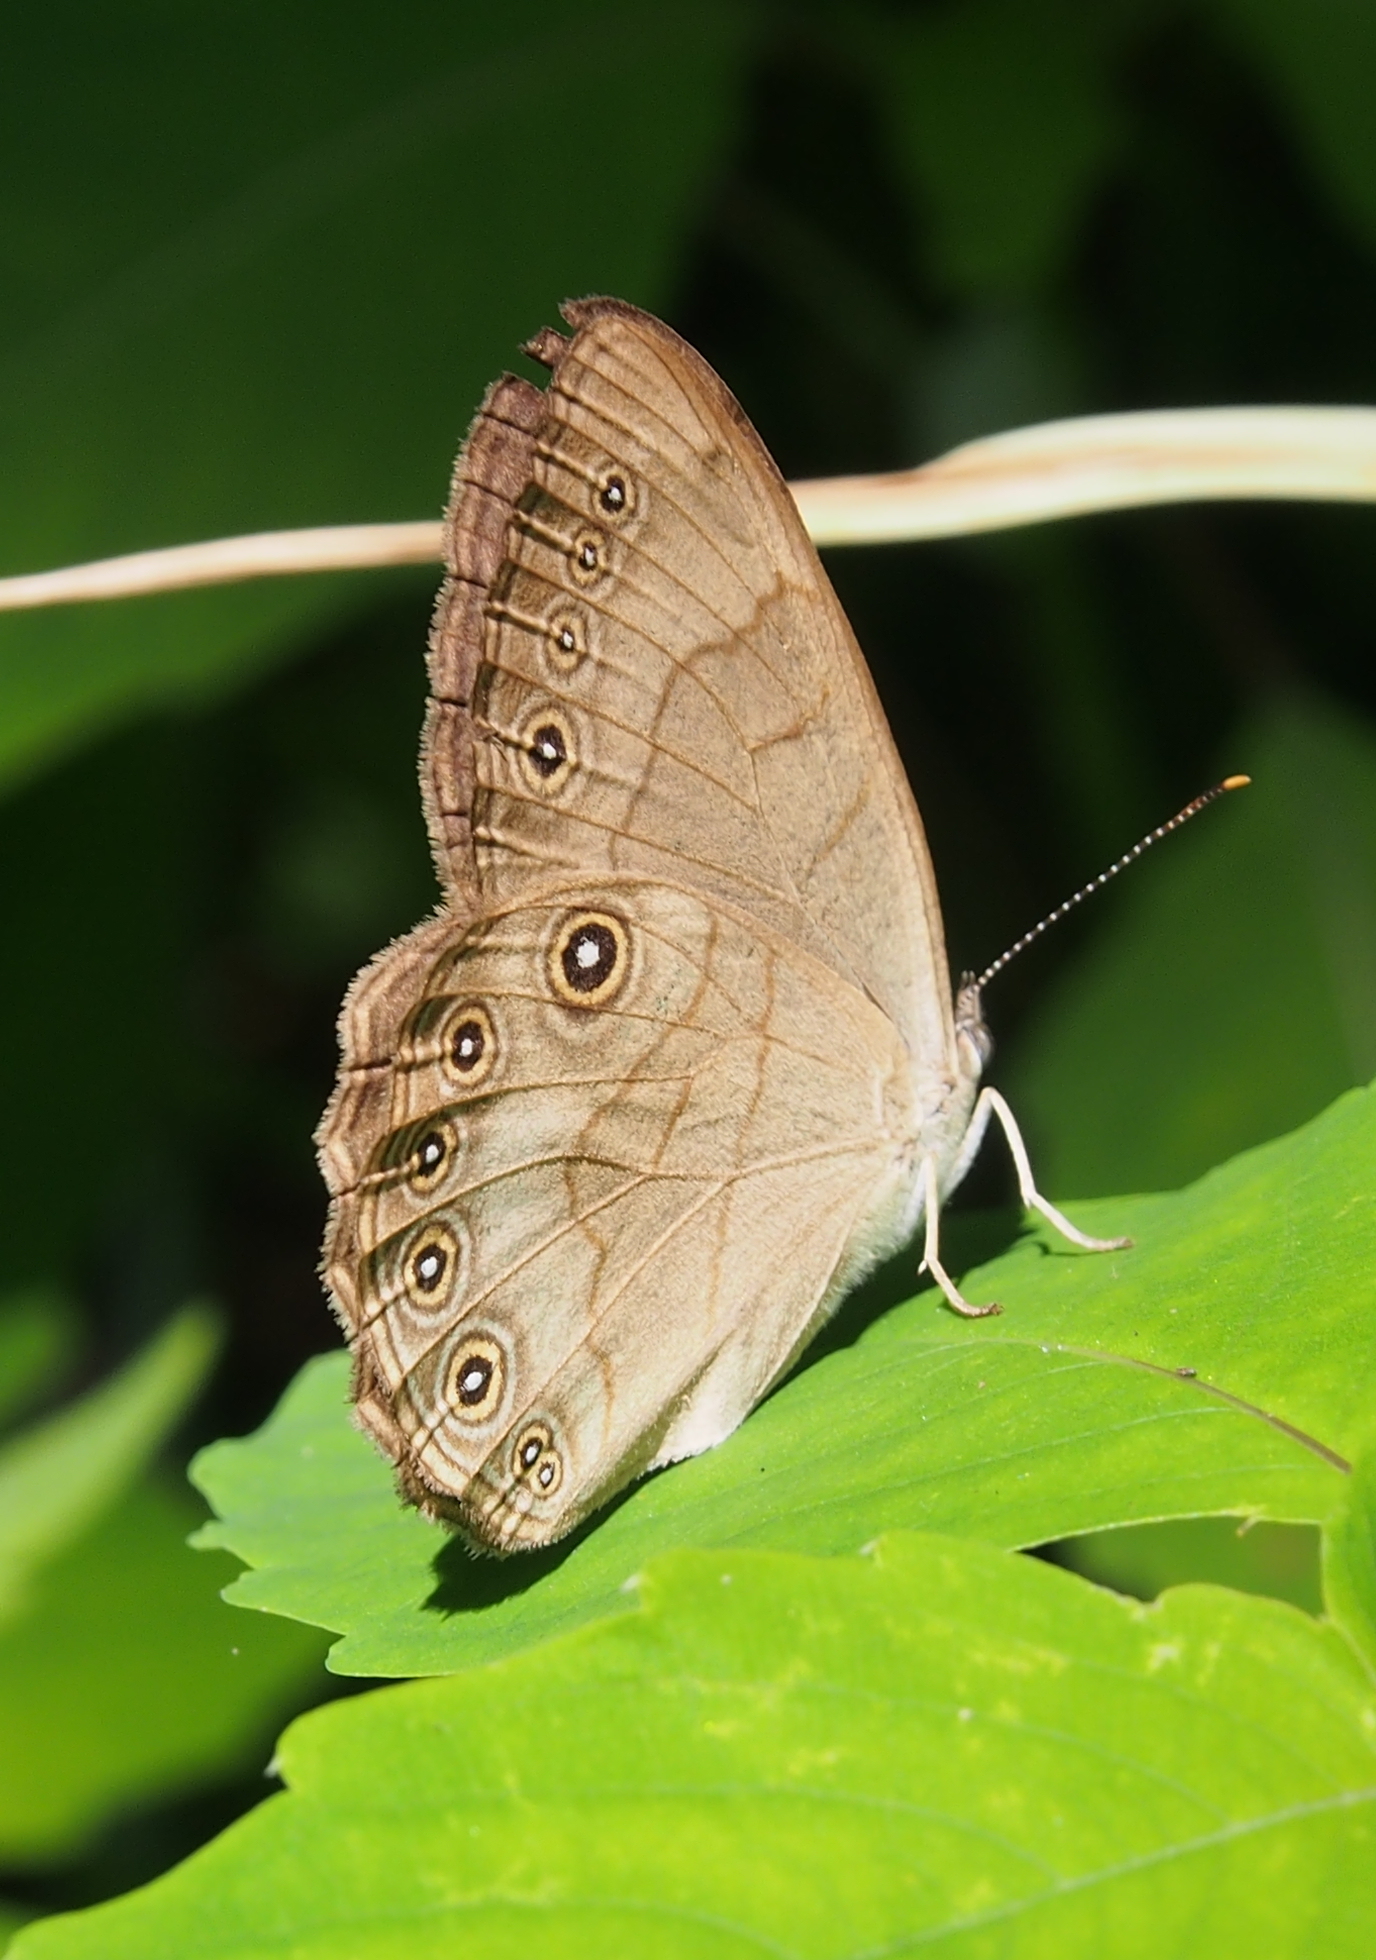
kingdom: Animalia
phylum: Arthropoda
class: Insecta
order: Lepidoptera
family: Nymphalidae
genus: Lethe
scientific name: Lethe eurydice
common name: Eyed brown
